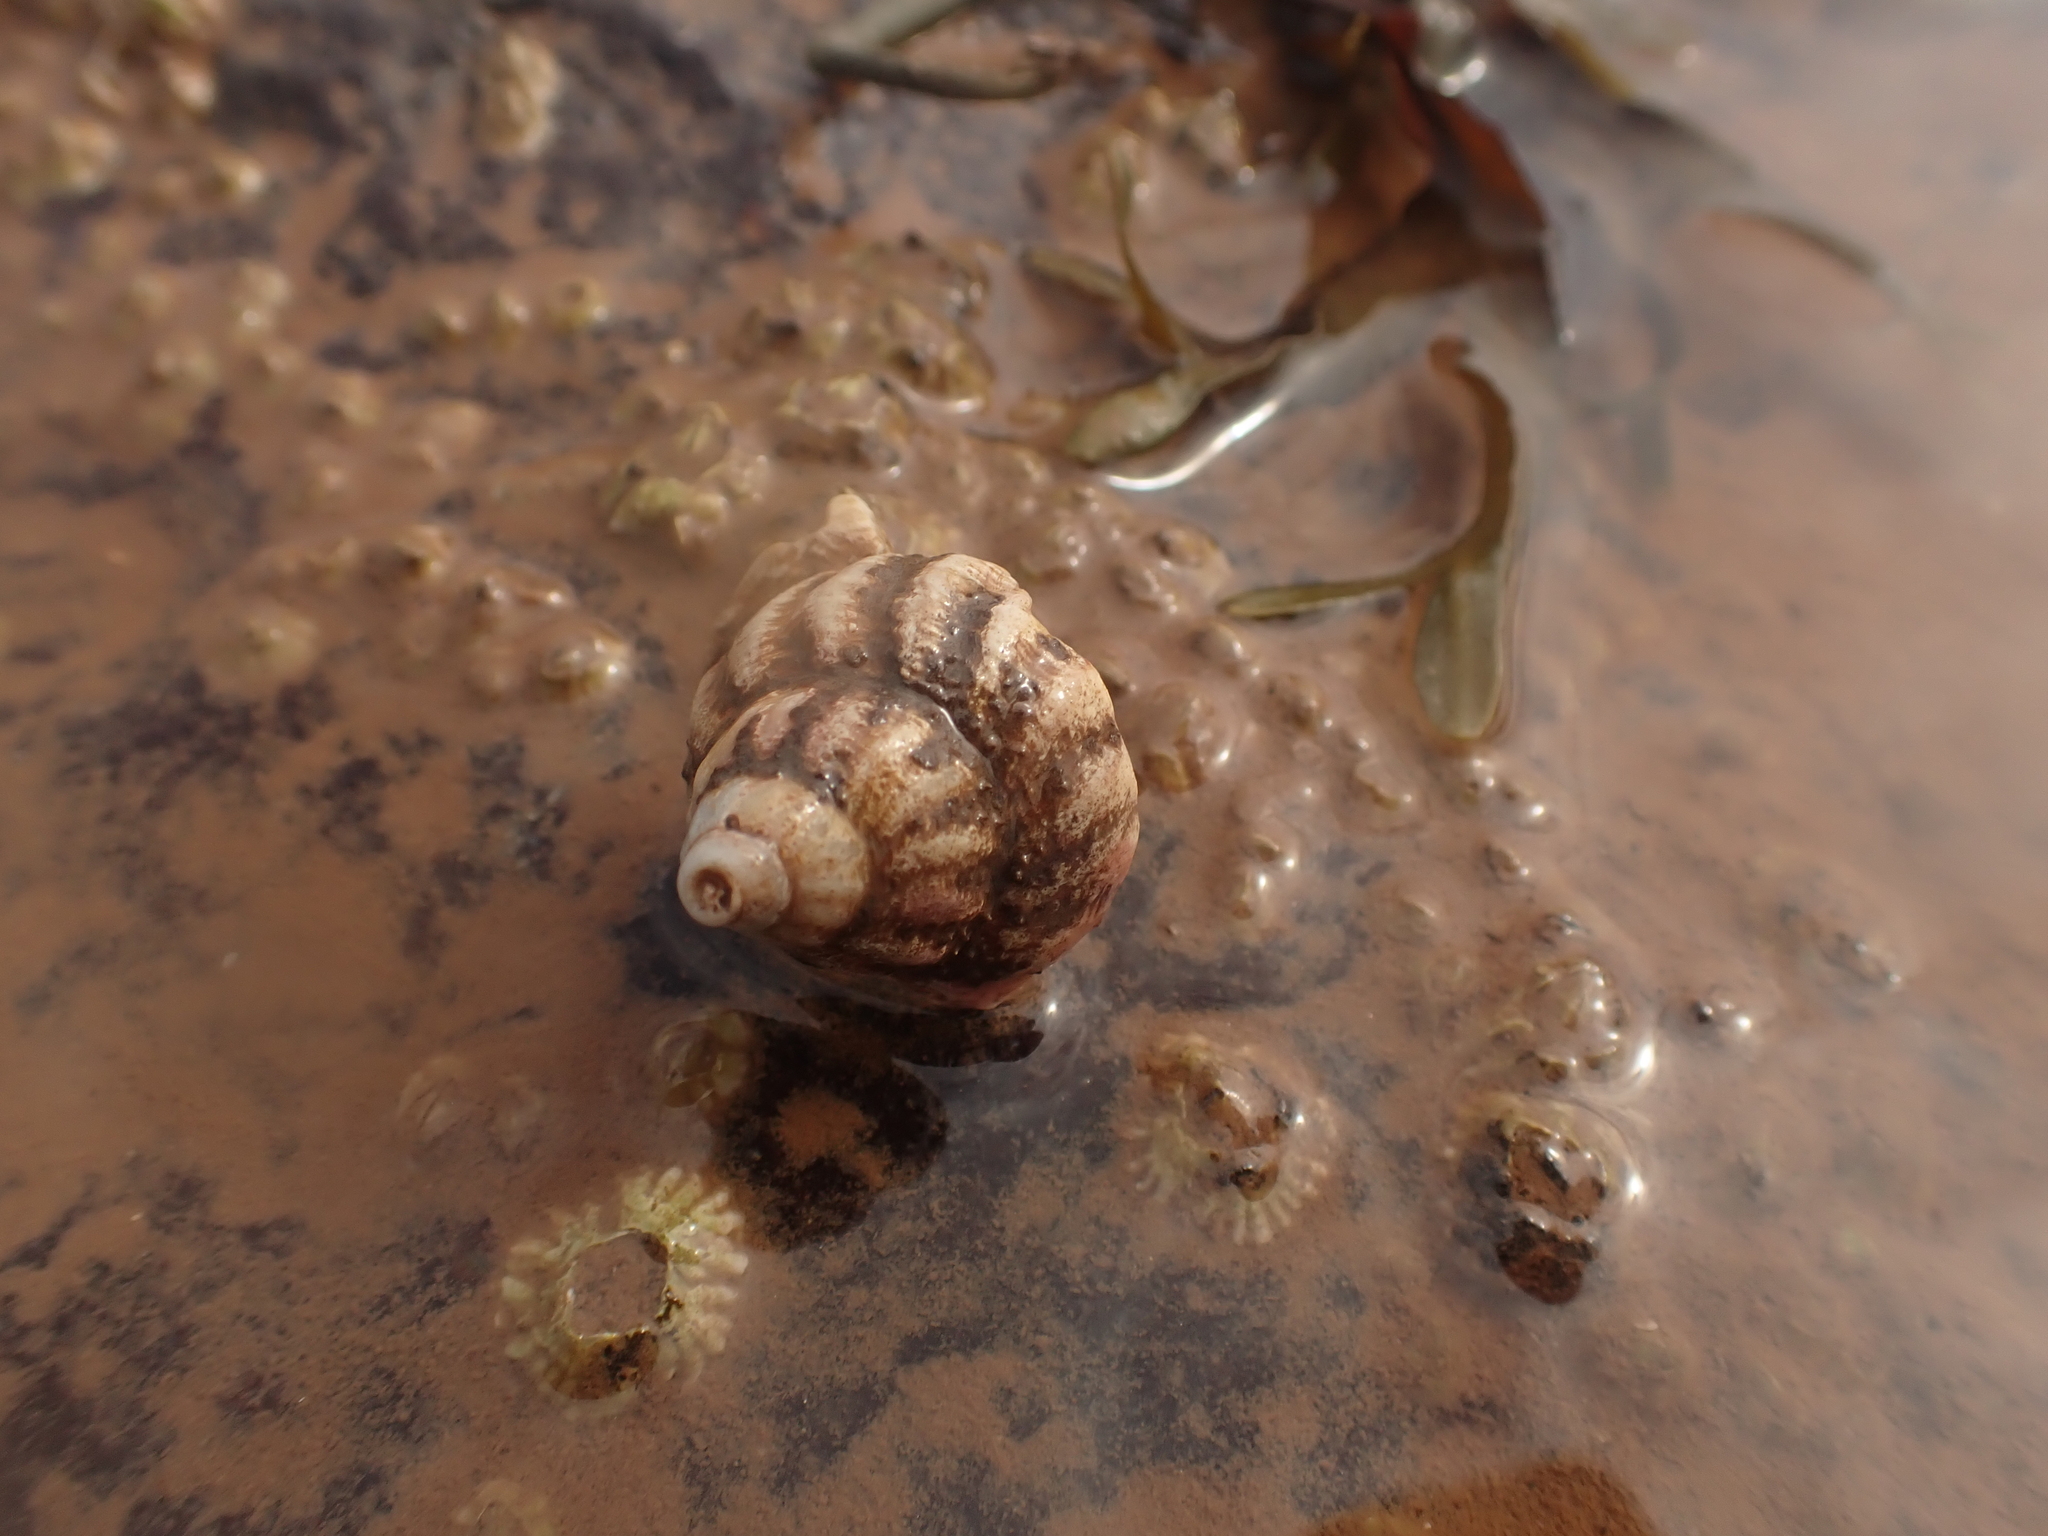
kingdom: Animalia
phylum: Mollusca
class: Gastropoda
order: Neogastropoda
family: Buccinidae
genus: Buccinum
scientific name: Buccinum undatum
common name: Common whelk
